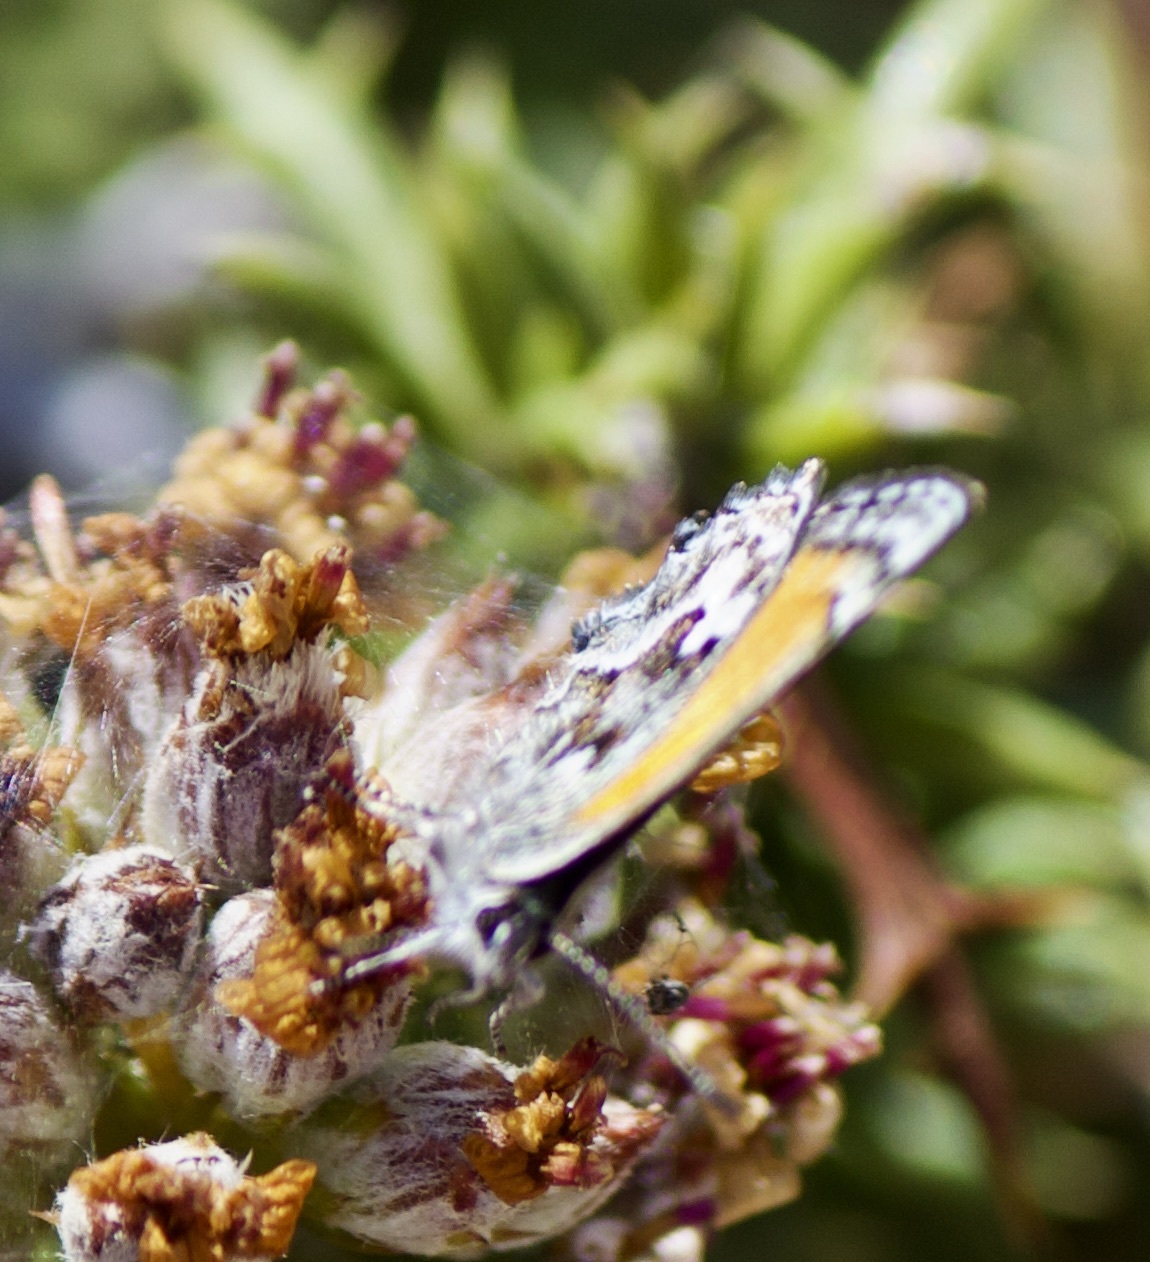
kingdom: Animalia
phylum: Arthropoda
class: Insecta
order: Lepidoptera
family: Lycaenidae
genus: Strymon
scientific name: Strymon
